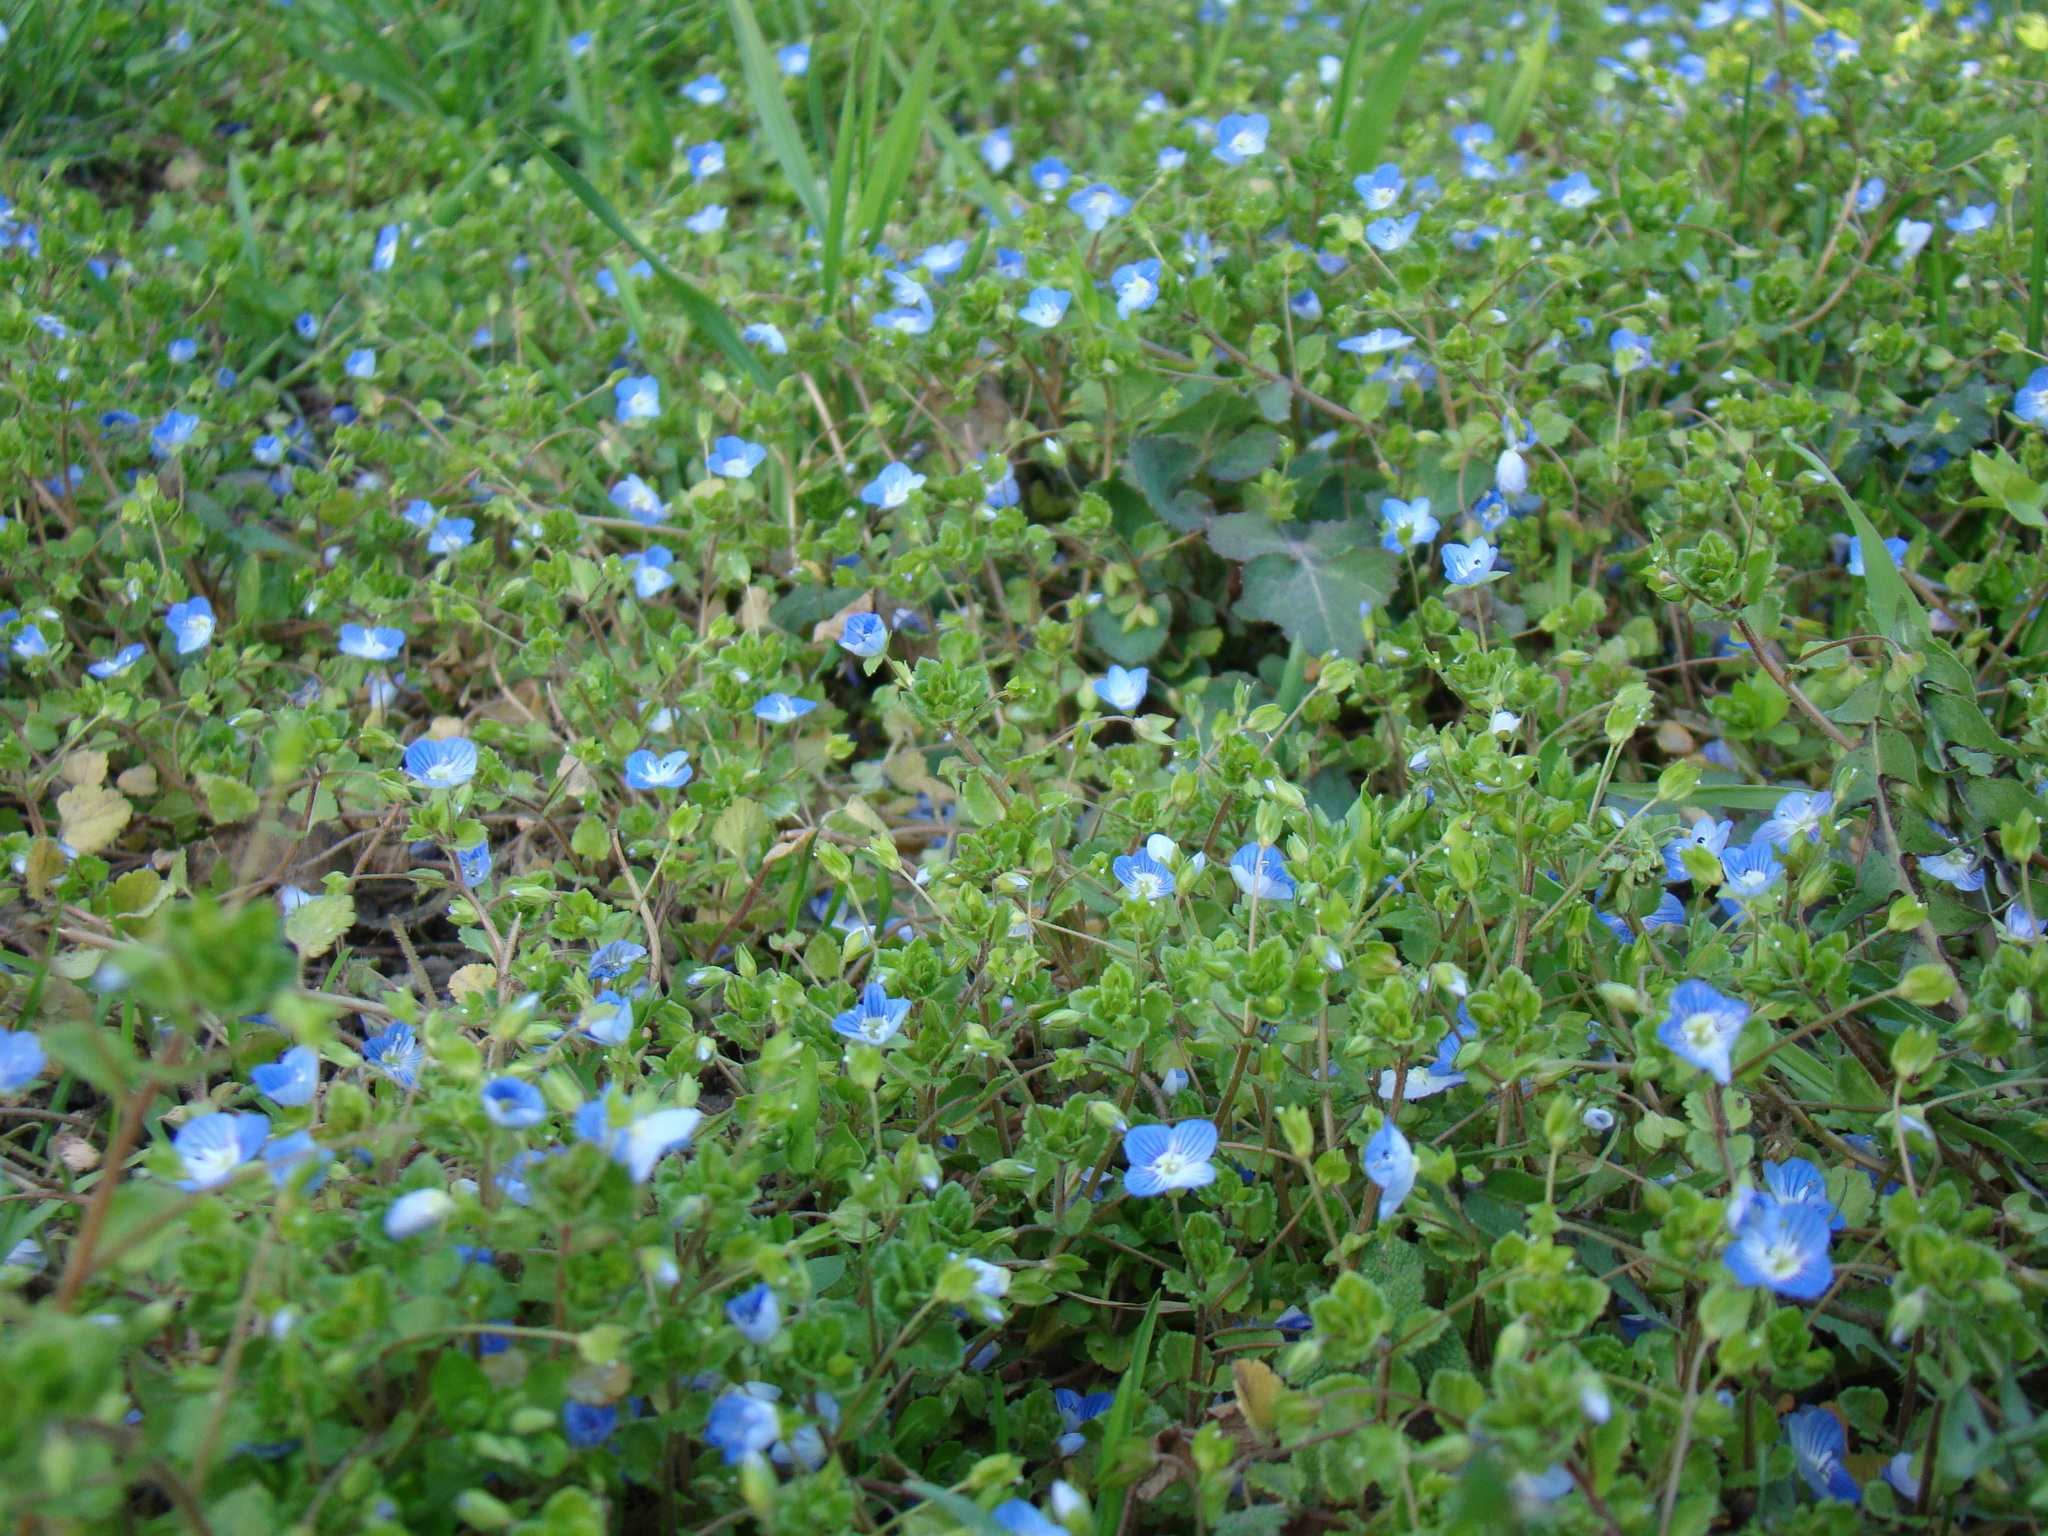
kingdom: Plantae
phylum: Tracheophyta
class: Magnoliopsida
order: Lamiales
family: Plantaginaceae
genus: Veronica
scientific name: Veronica persica
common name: Common field-speedwell
